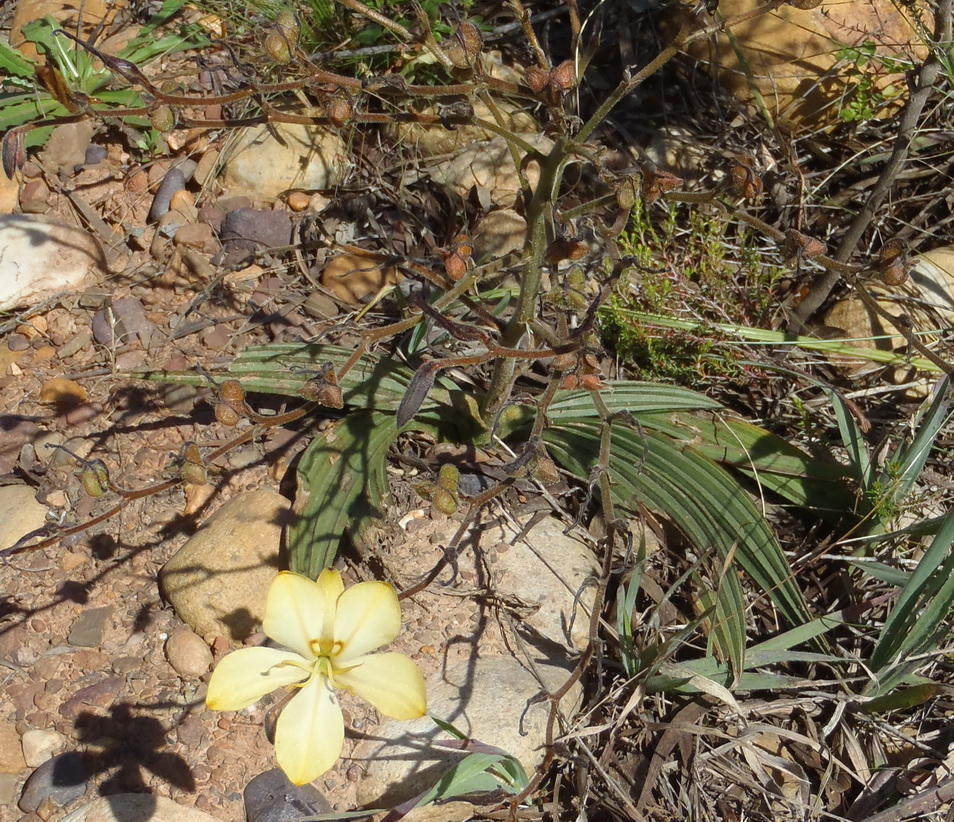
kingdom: Plantae
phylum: Tracheophyta
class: Liliopsida
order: Commelinales
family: Haemodoraceae
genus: Wachendorfia
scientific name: Wachendorfia paniculata
